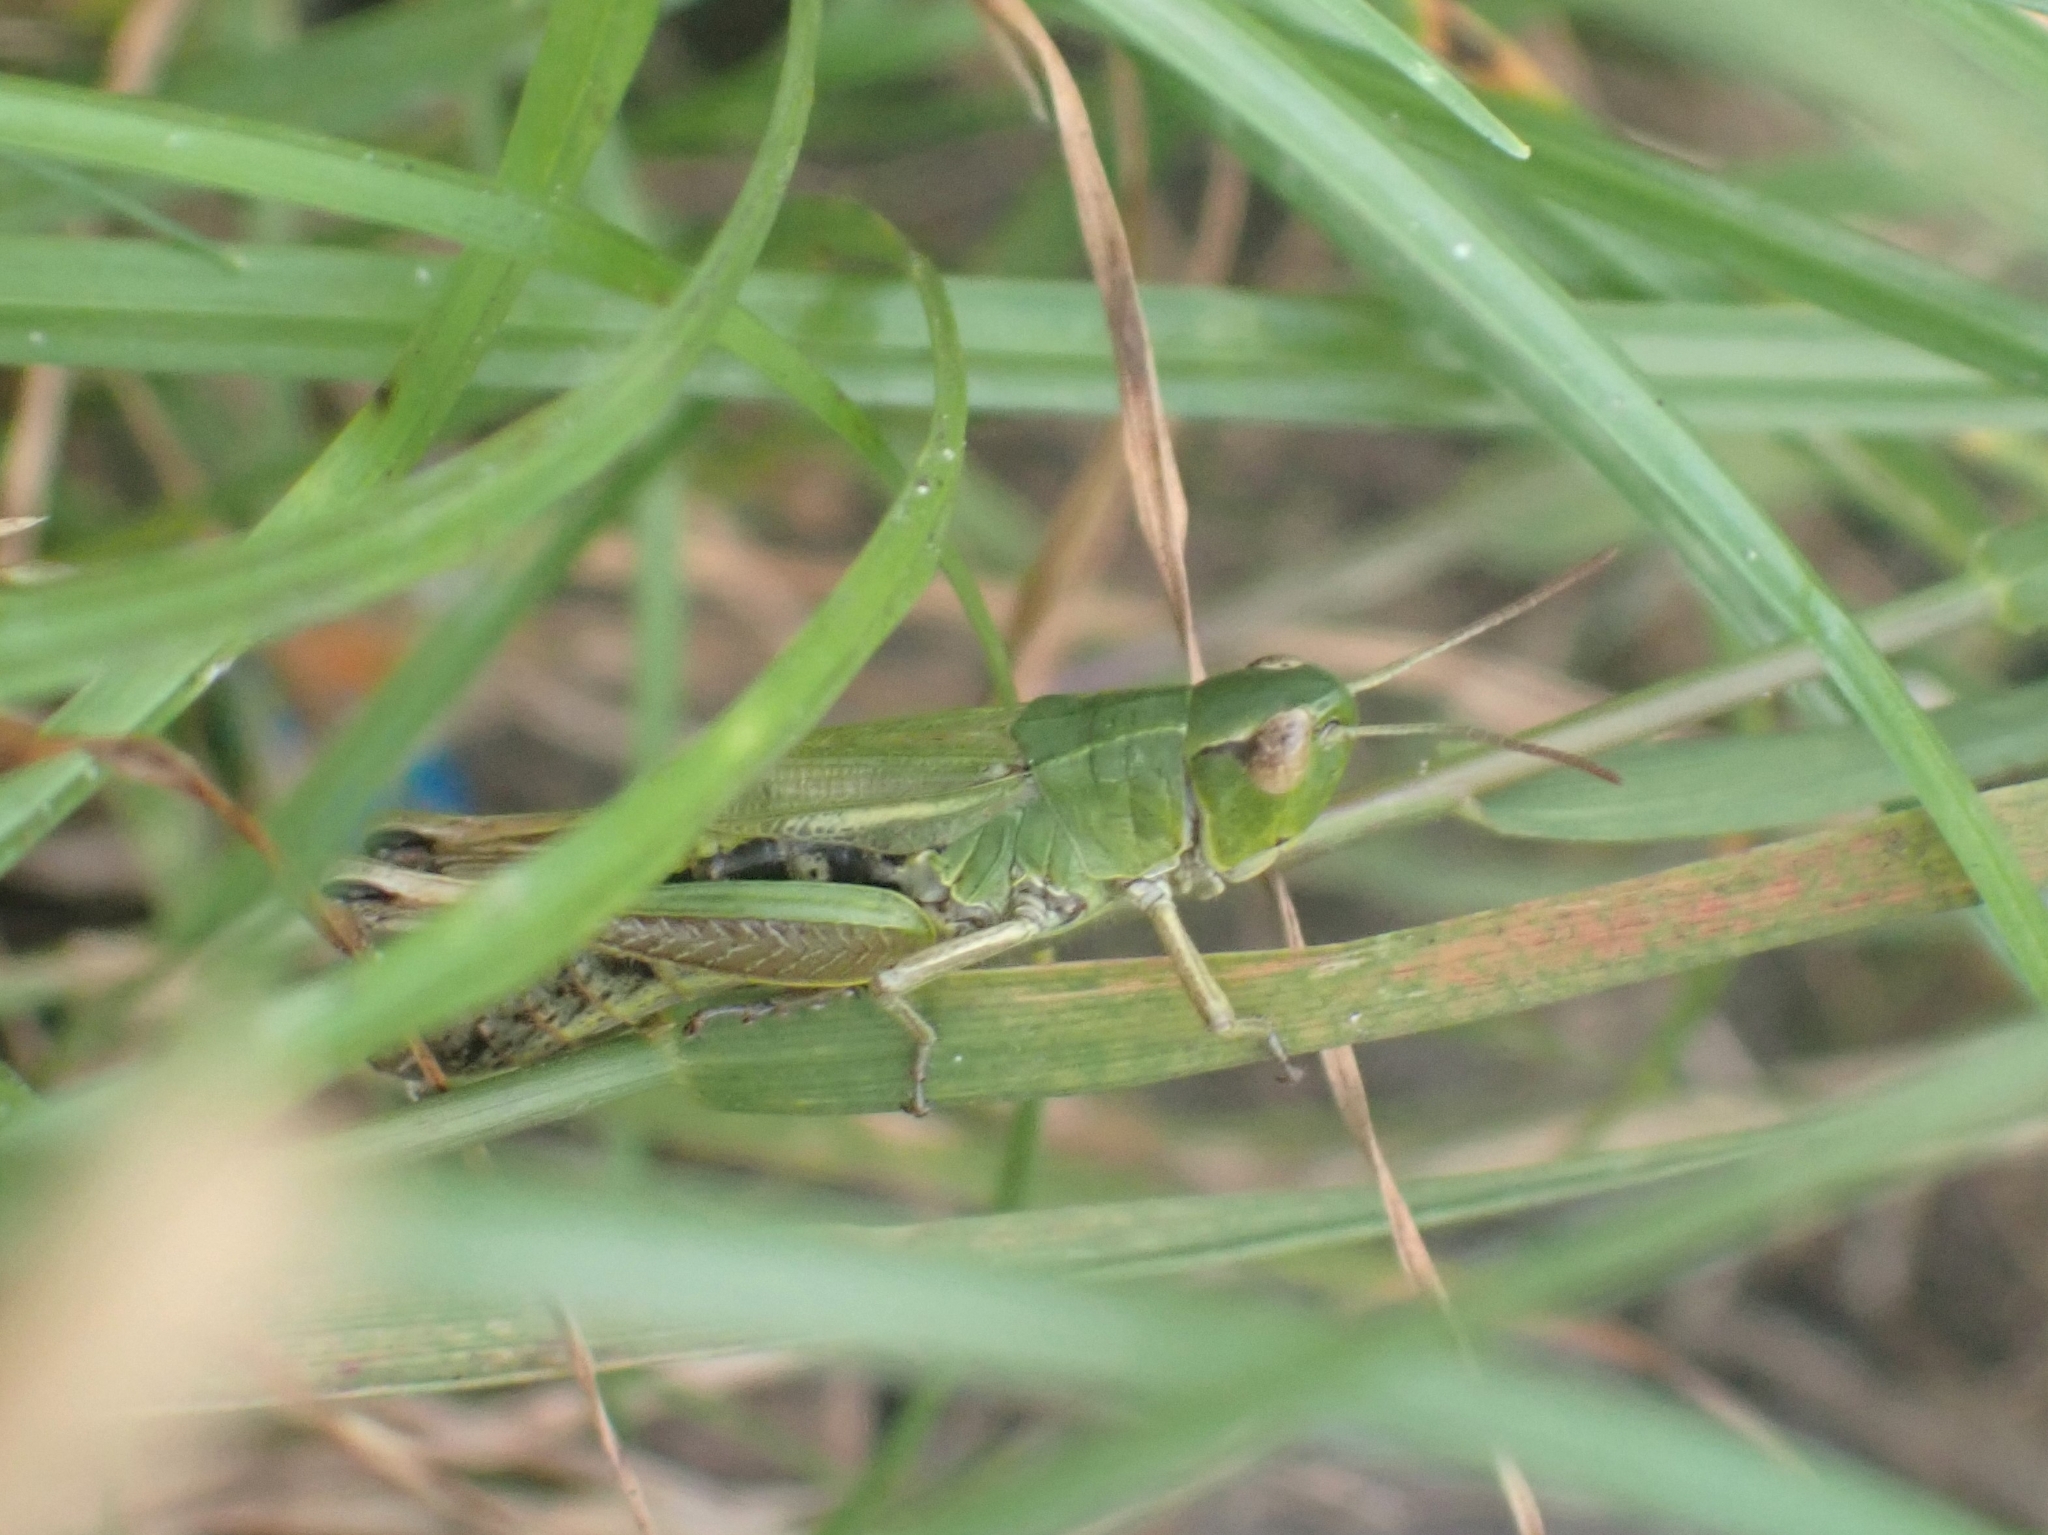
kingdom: Animalia
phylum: Arthropoda
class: Insecta
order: Orthoptera
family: Acrididae
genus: Pseudochorthippus
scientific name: Pseudochorthippus parallelus
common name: Meadow grasshopper
